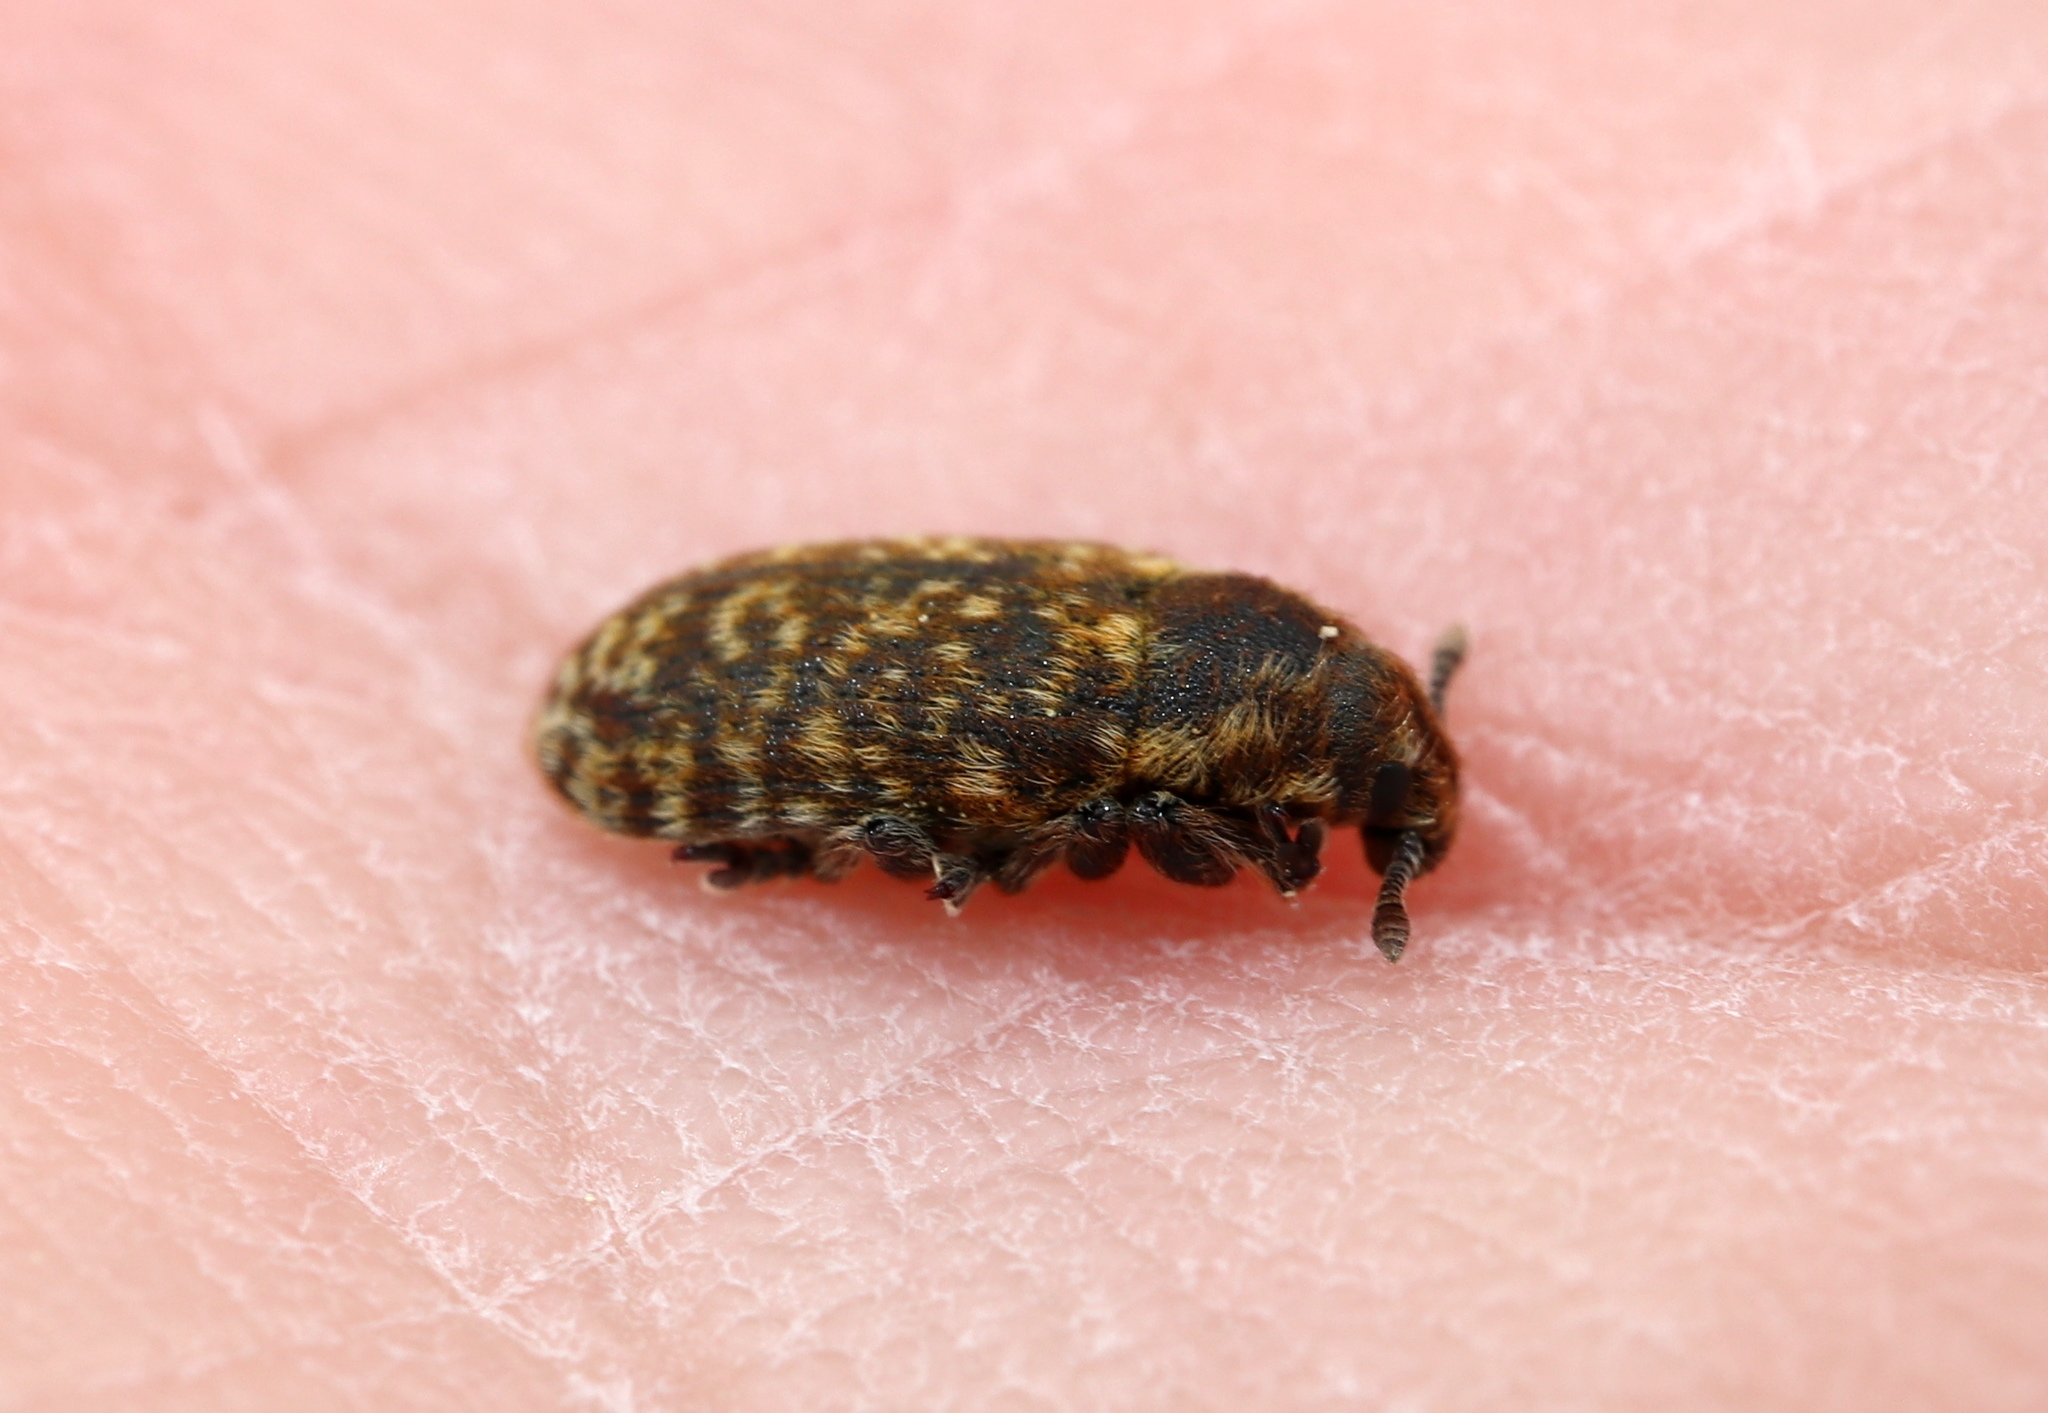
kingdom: Animalia
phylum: Arthropoda
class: Insecta
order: Coleoptera
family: Curculionidae
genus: Rhinocyllus
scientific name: Rhinocyllus conicus
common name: Weevil
